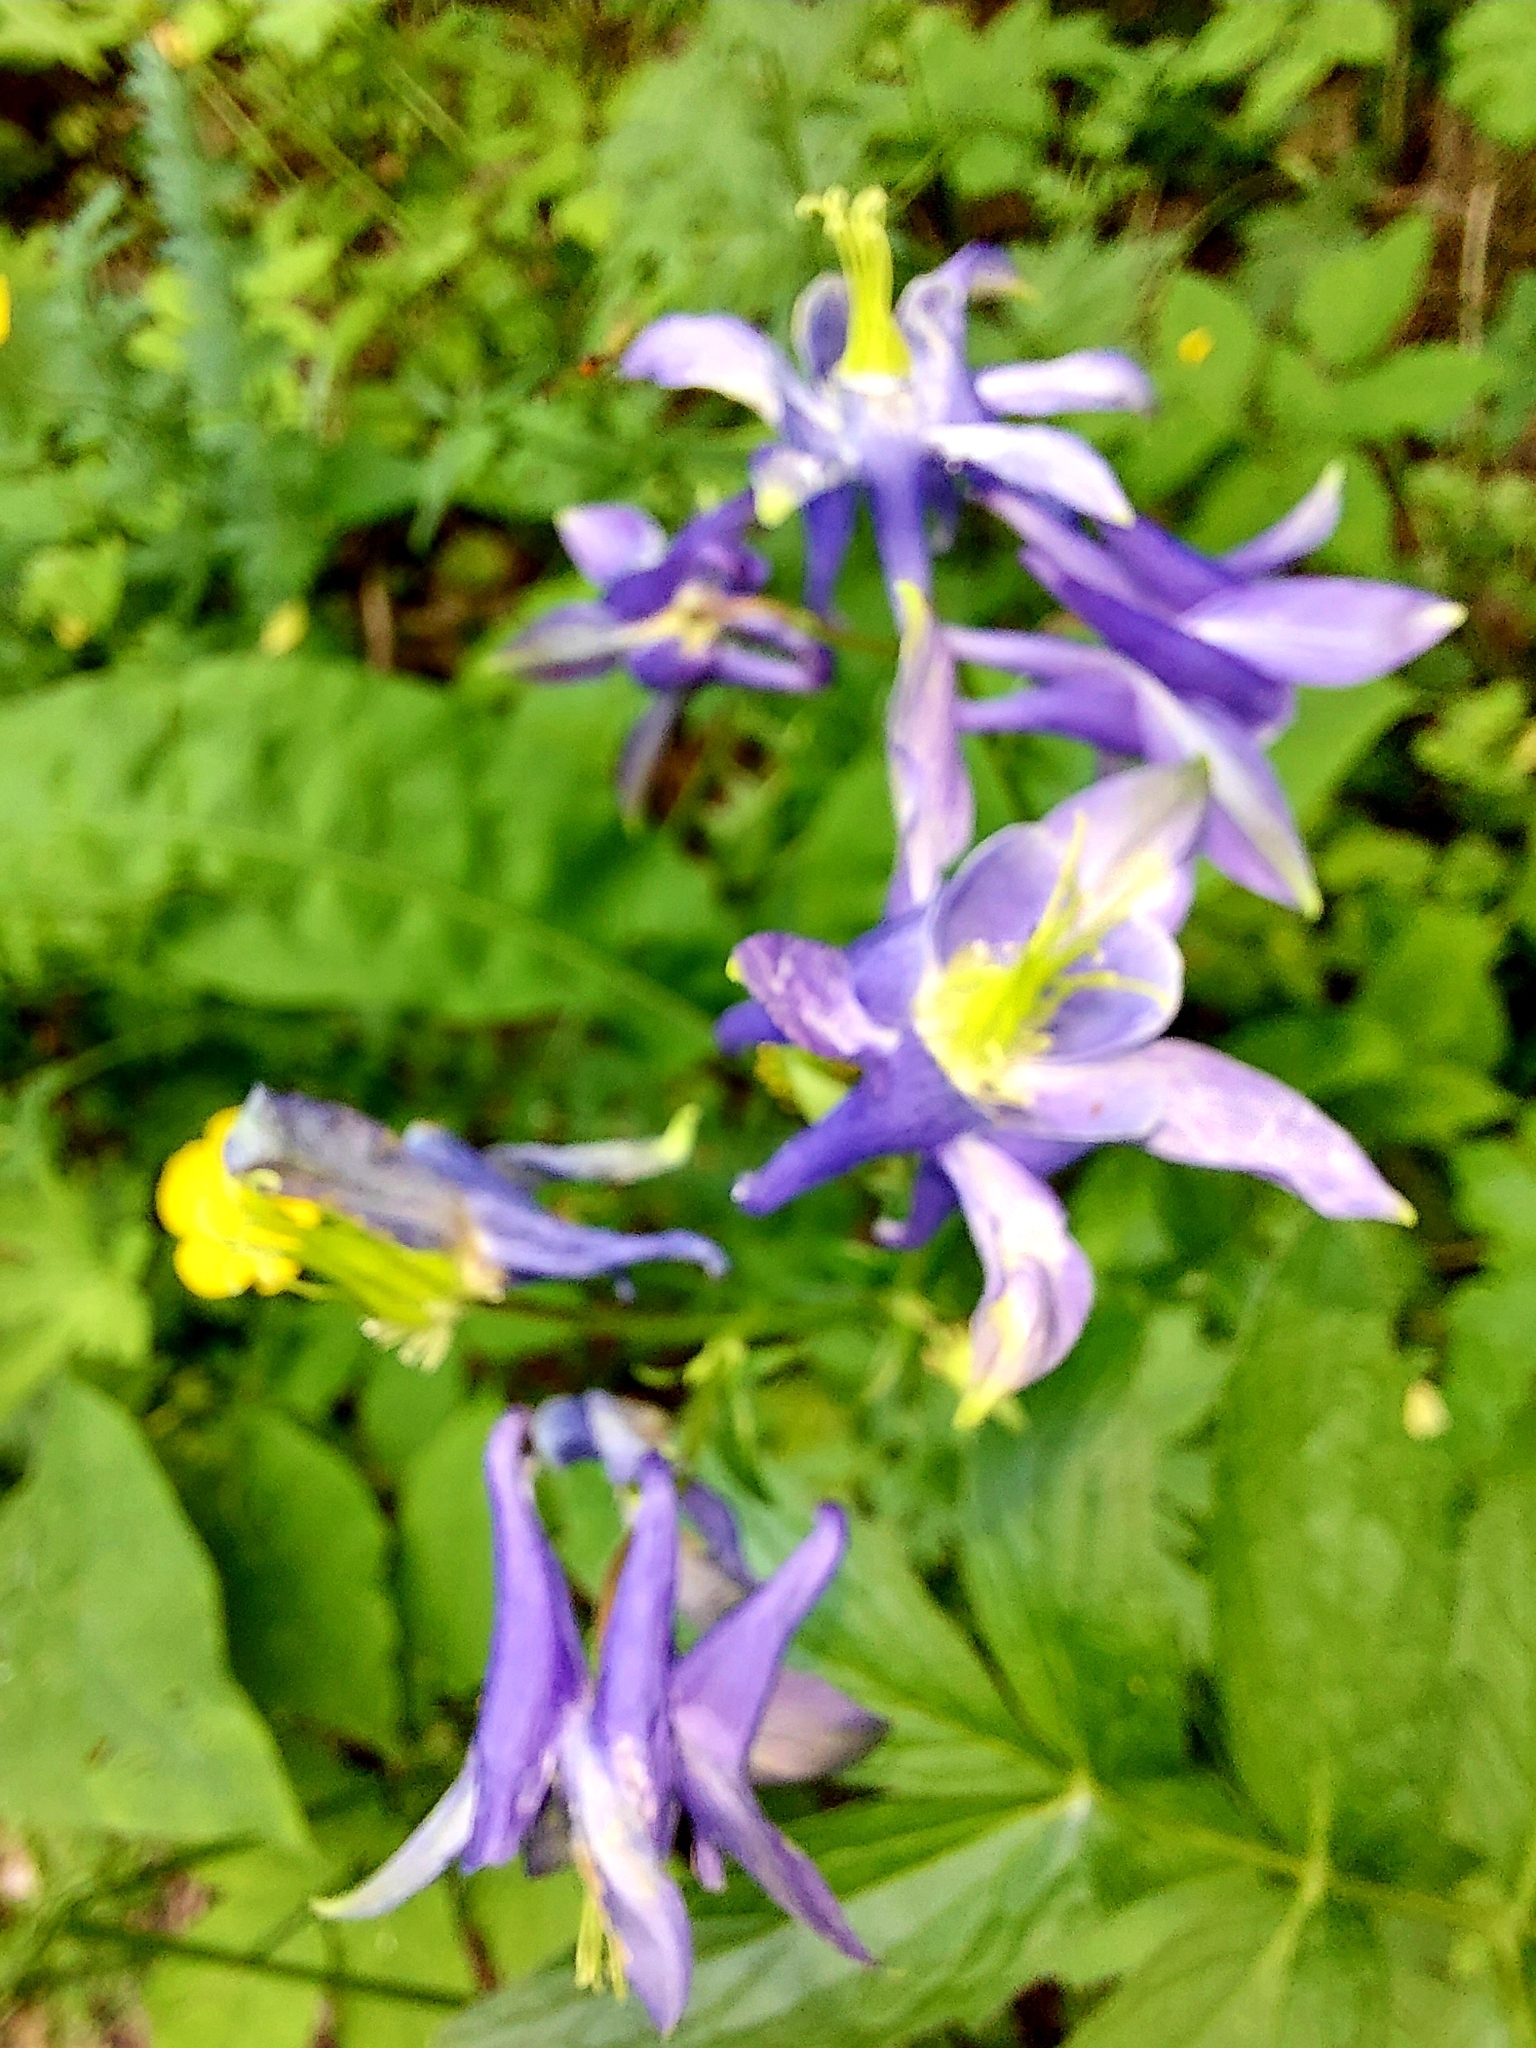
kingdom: Plantae
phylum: Tracheophyta
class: Magnoliopsida
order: Ranunculales
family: Ranunculaceae
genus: Aquilegia
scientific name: Aquilegia vulgaris
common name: Columbine
